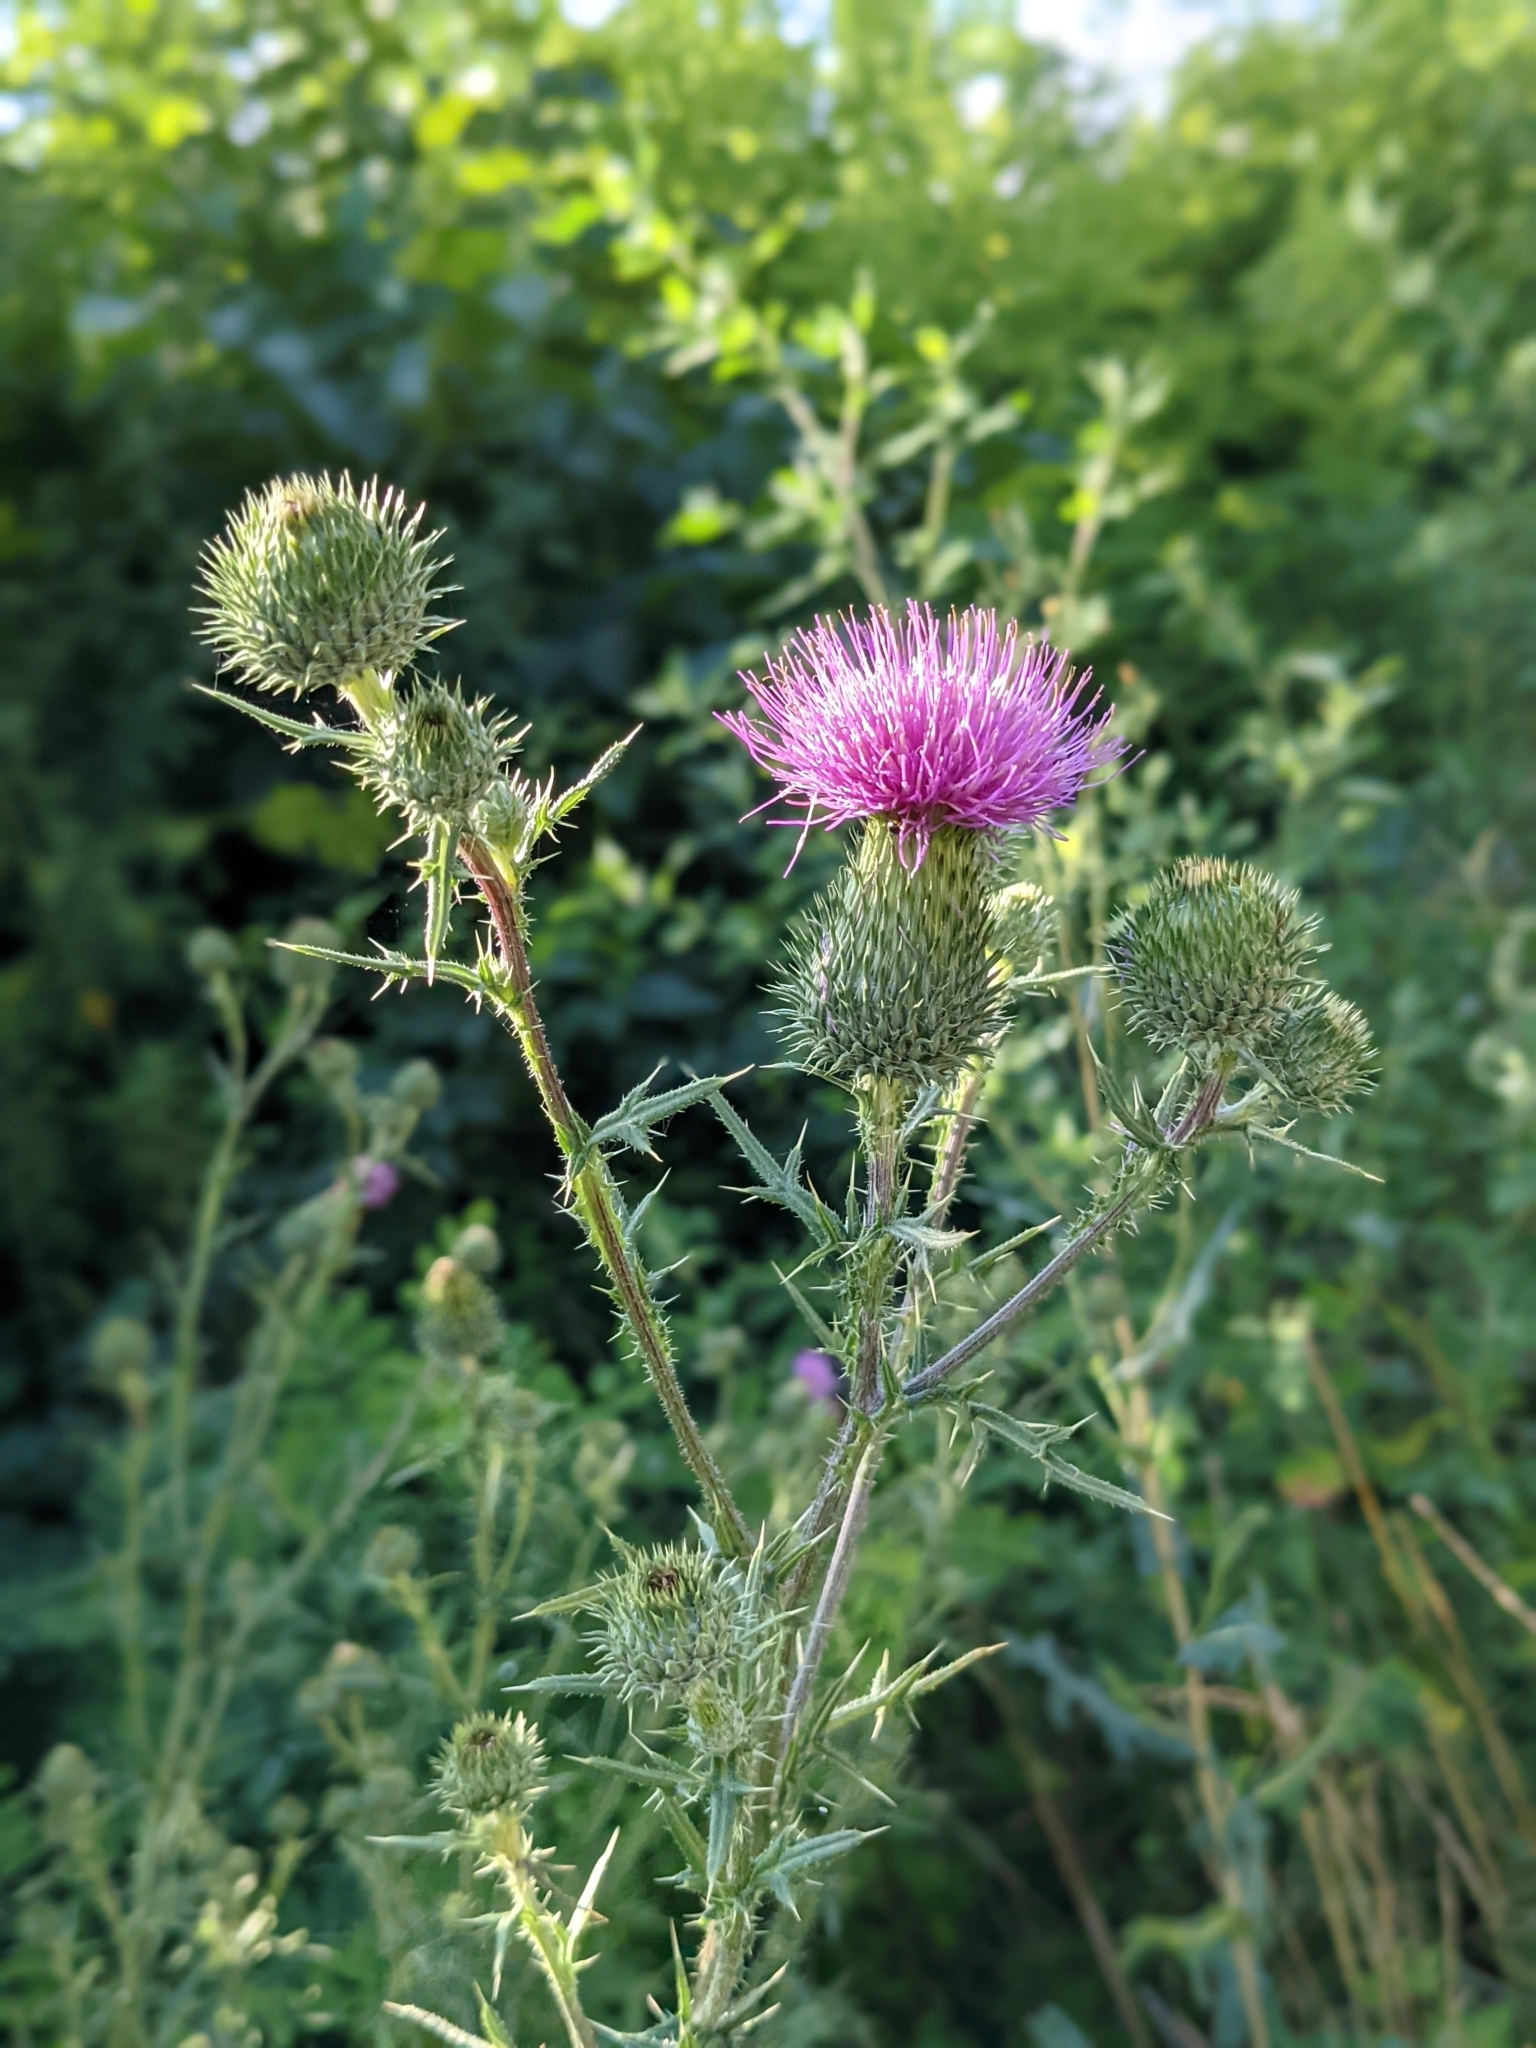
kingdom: Plantae
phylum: Tracheophyta
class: Magnoliopsida
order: Asterales
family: Asteraceae
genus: Cirsium
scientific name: Cirsium vulgare
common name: Bull thistle
